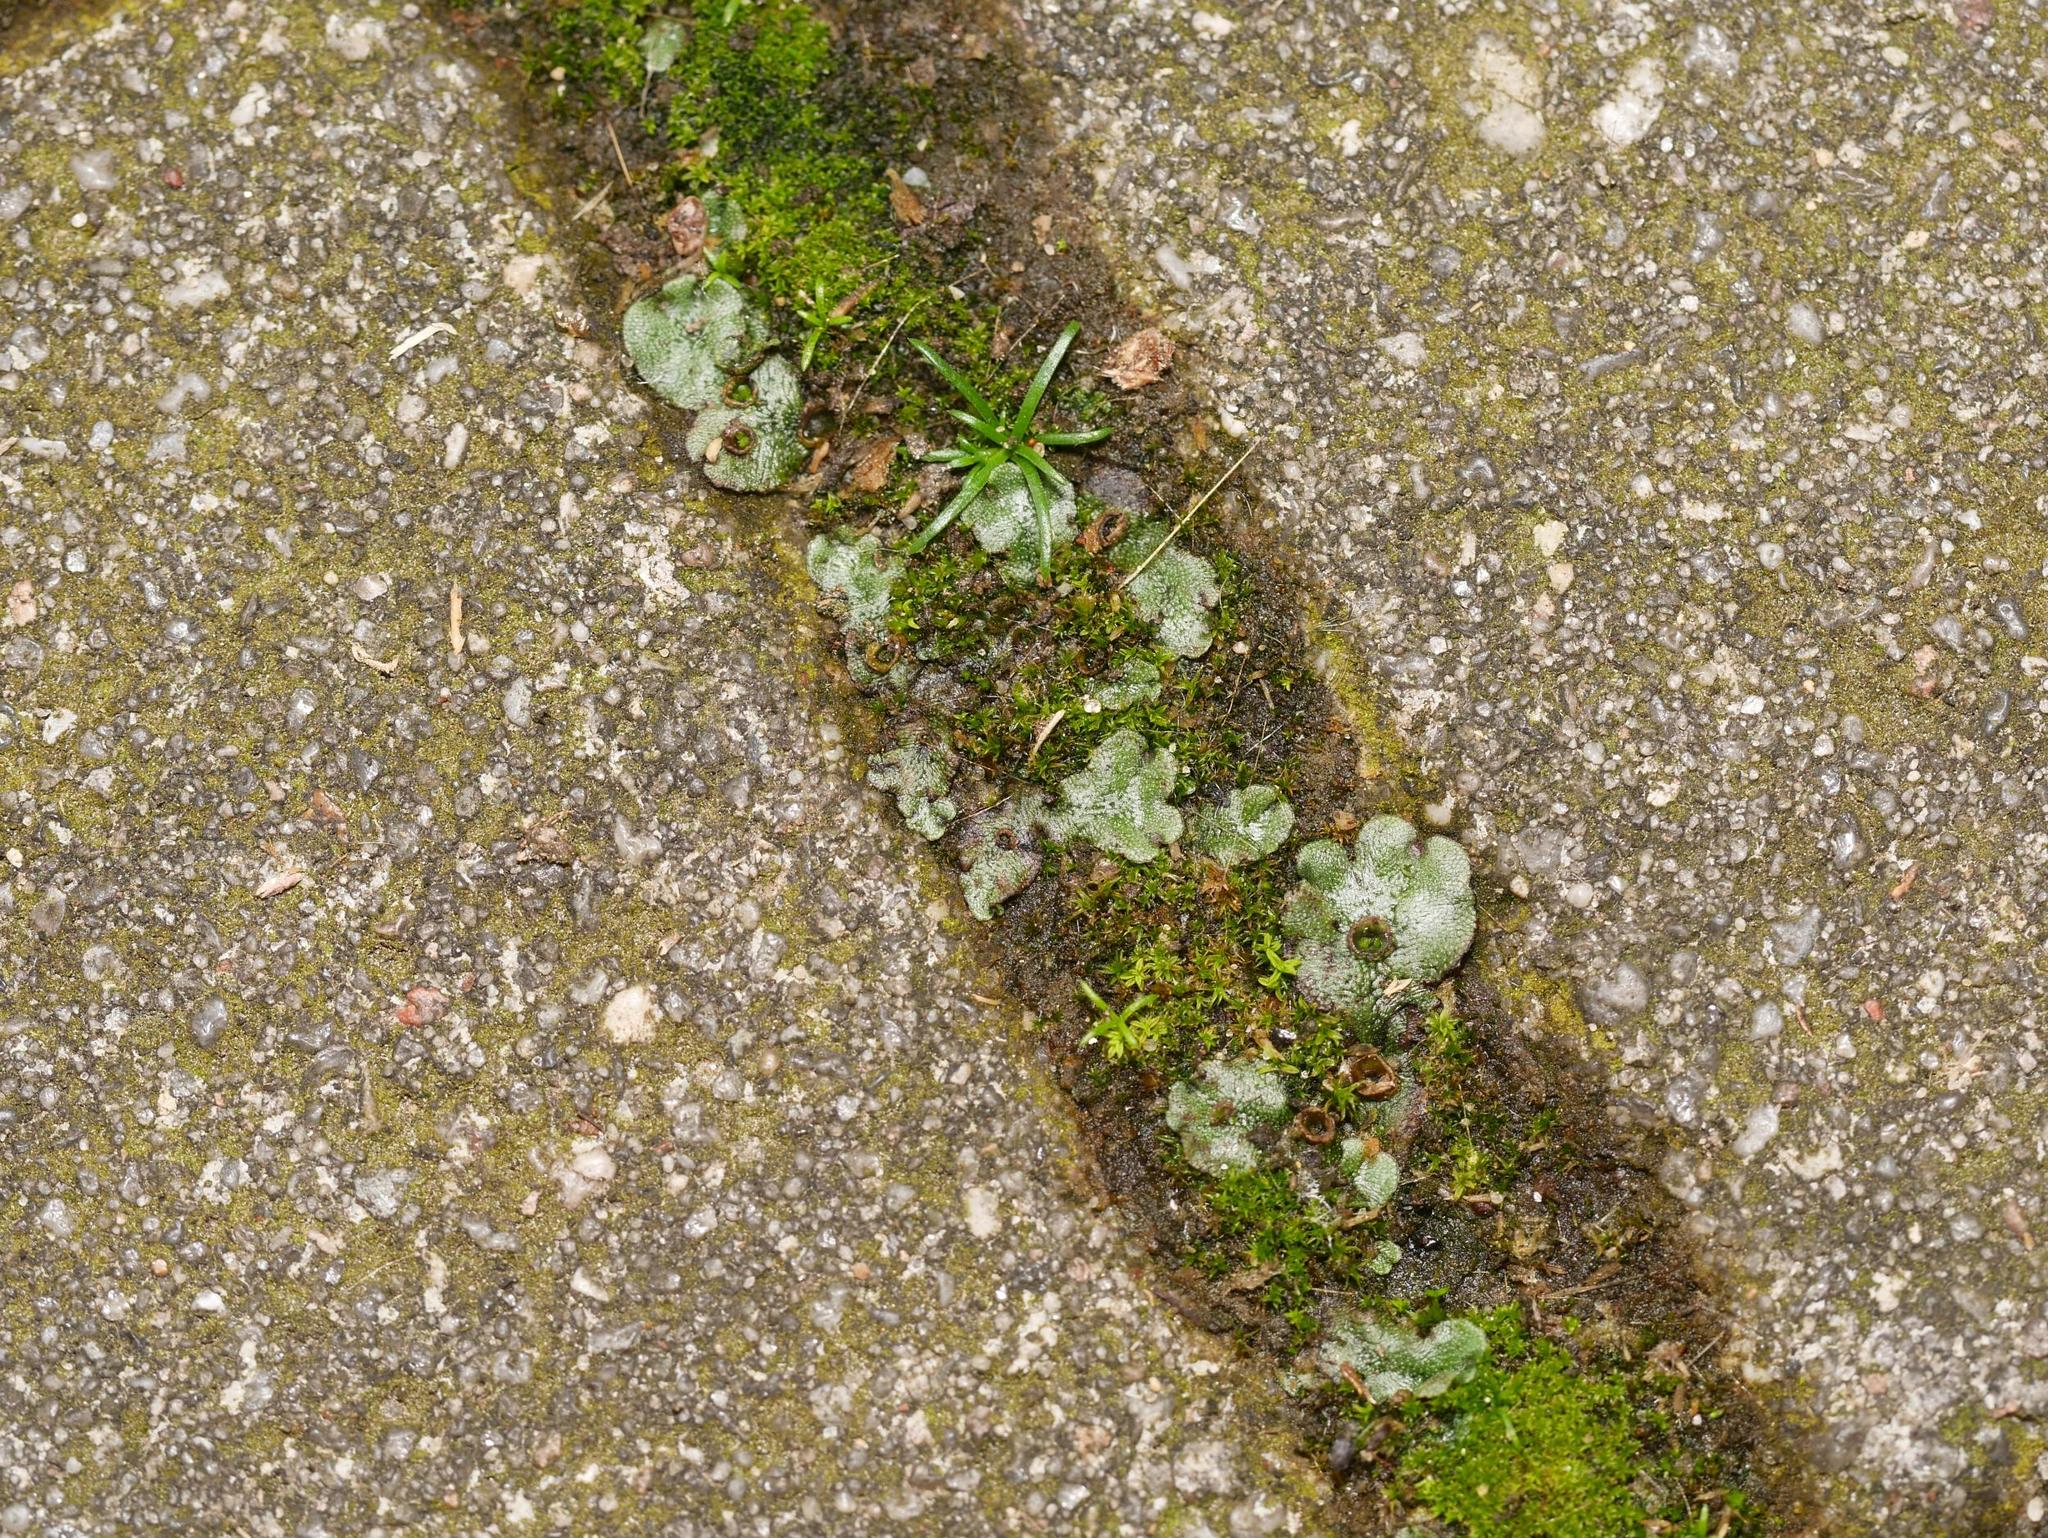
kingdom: Plantae
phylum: Marchantiophyta
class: Marchantiopsida
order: Marchantiales
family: Marchantiaceae
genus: Marchantia
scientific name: Marchantia polymorpha
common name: Common liverwort
